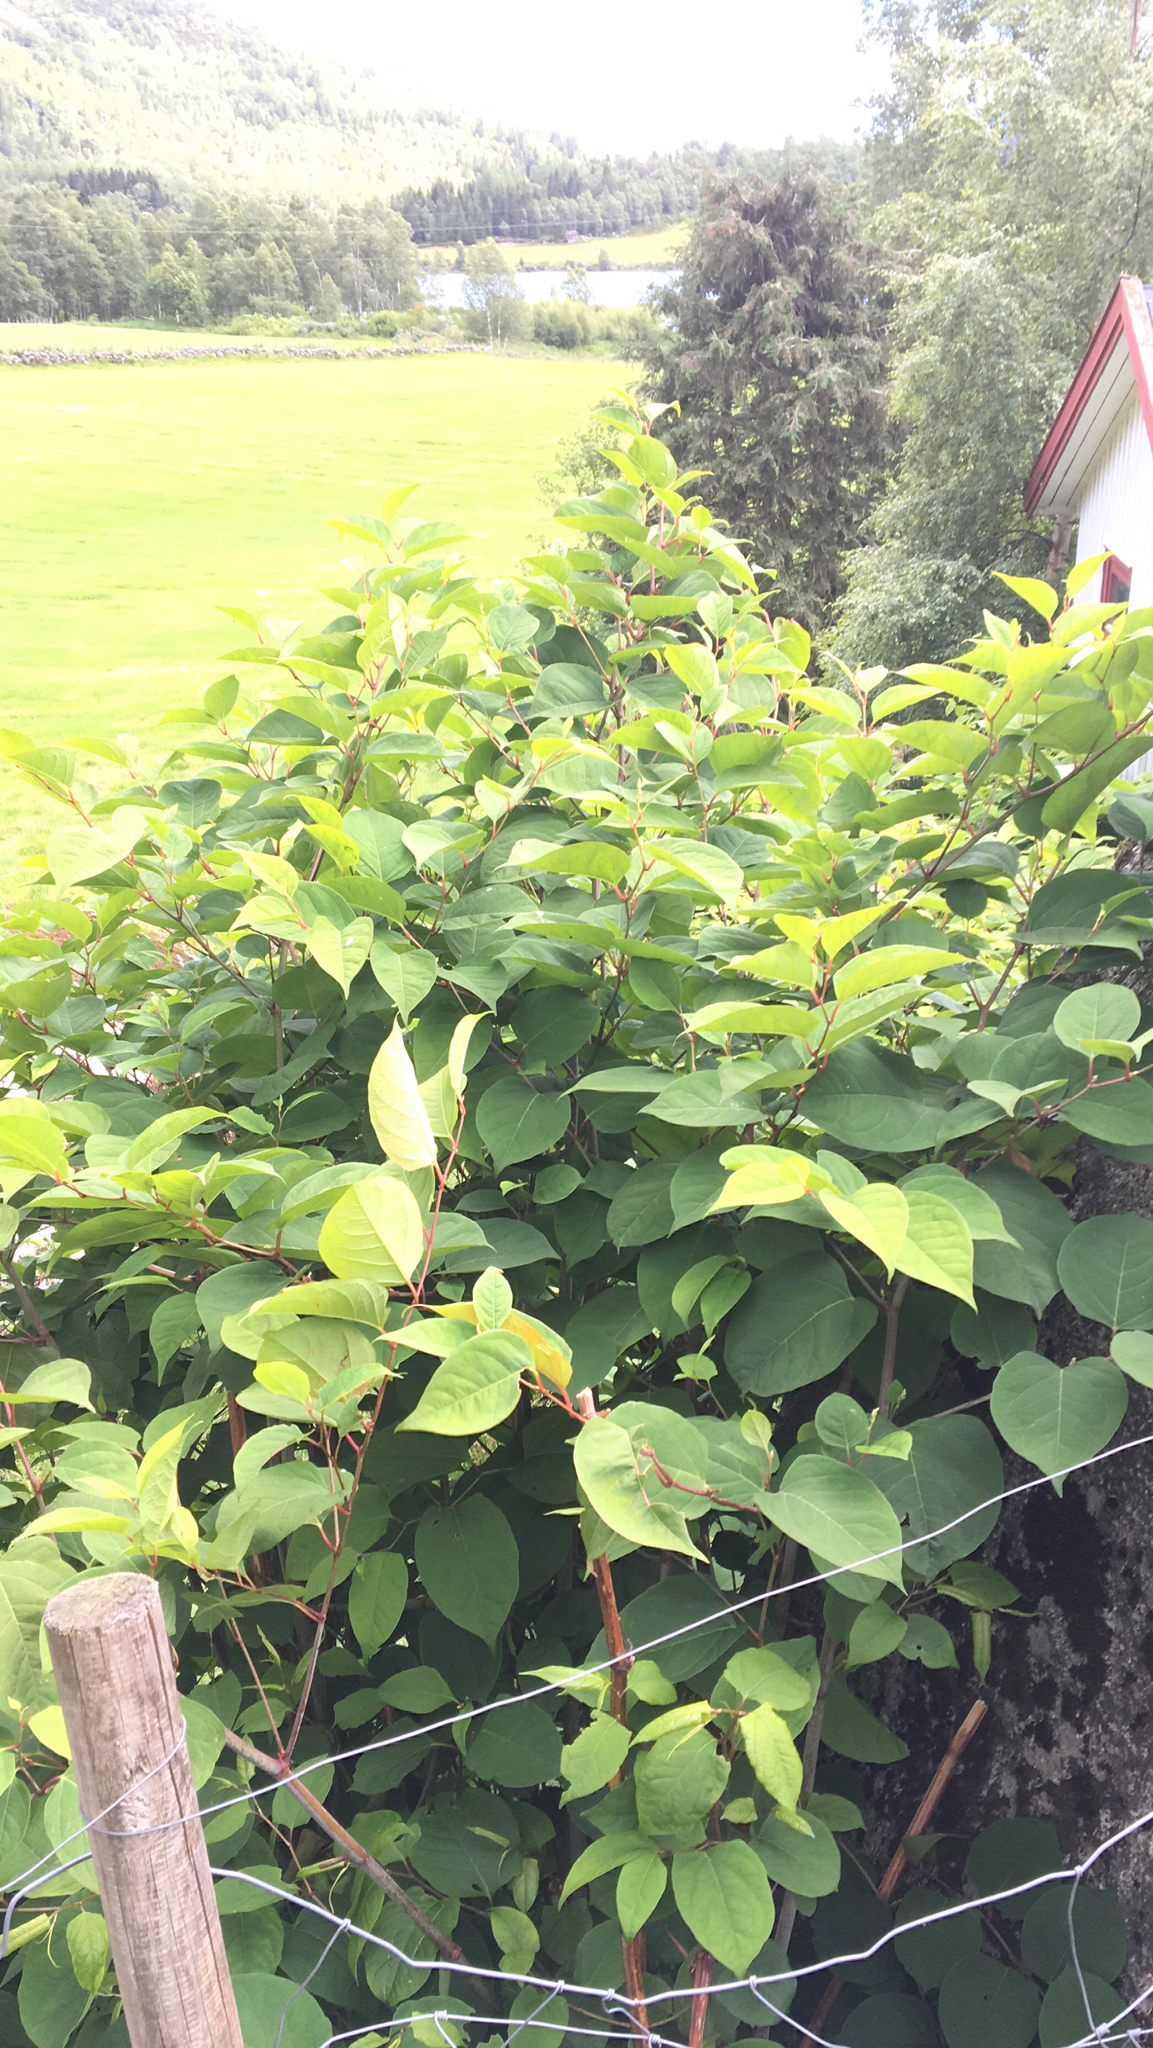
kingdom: Plantae
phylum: Tracheophyta
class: Magnoliopsida
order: Caryophyllales
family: Polygonaceae
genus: Reynoutria
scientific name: Reynoutria japonica
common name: Japanese knotweed
